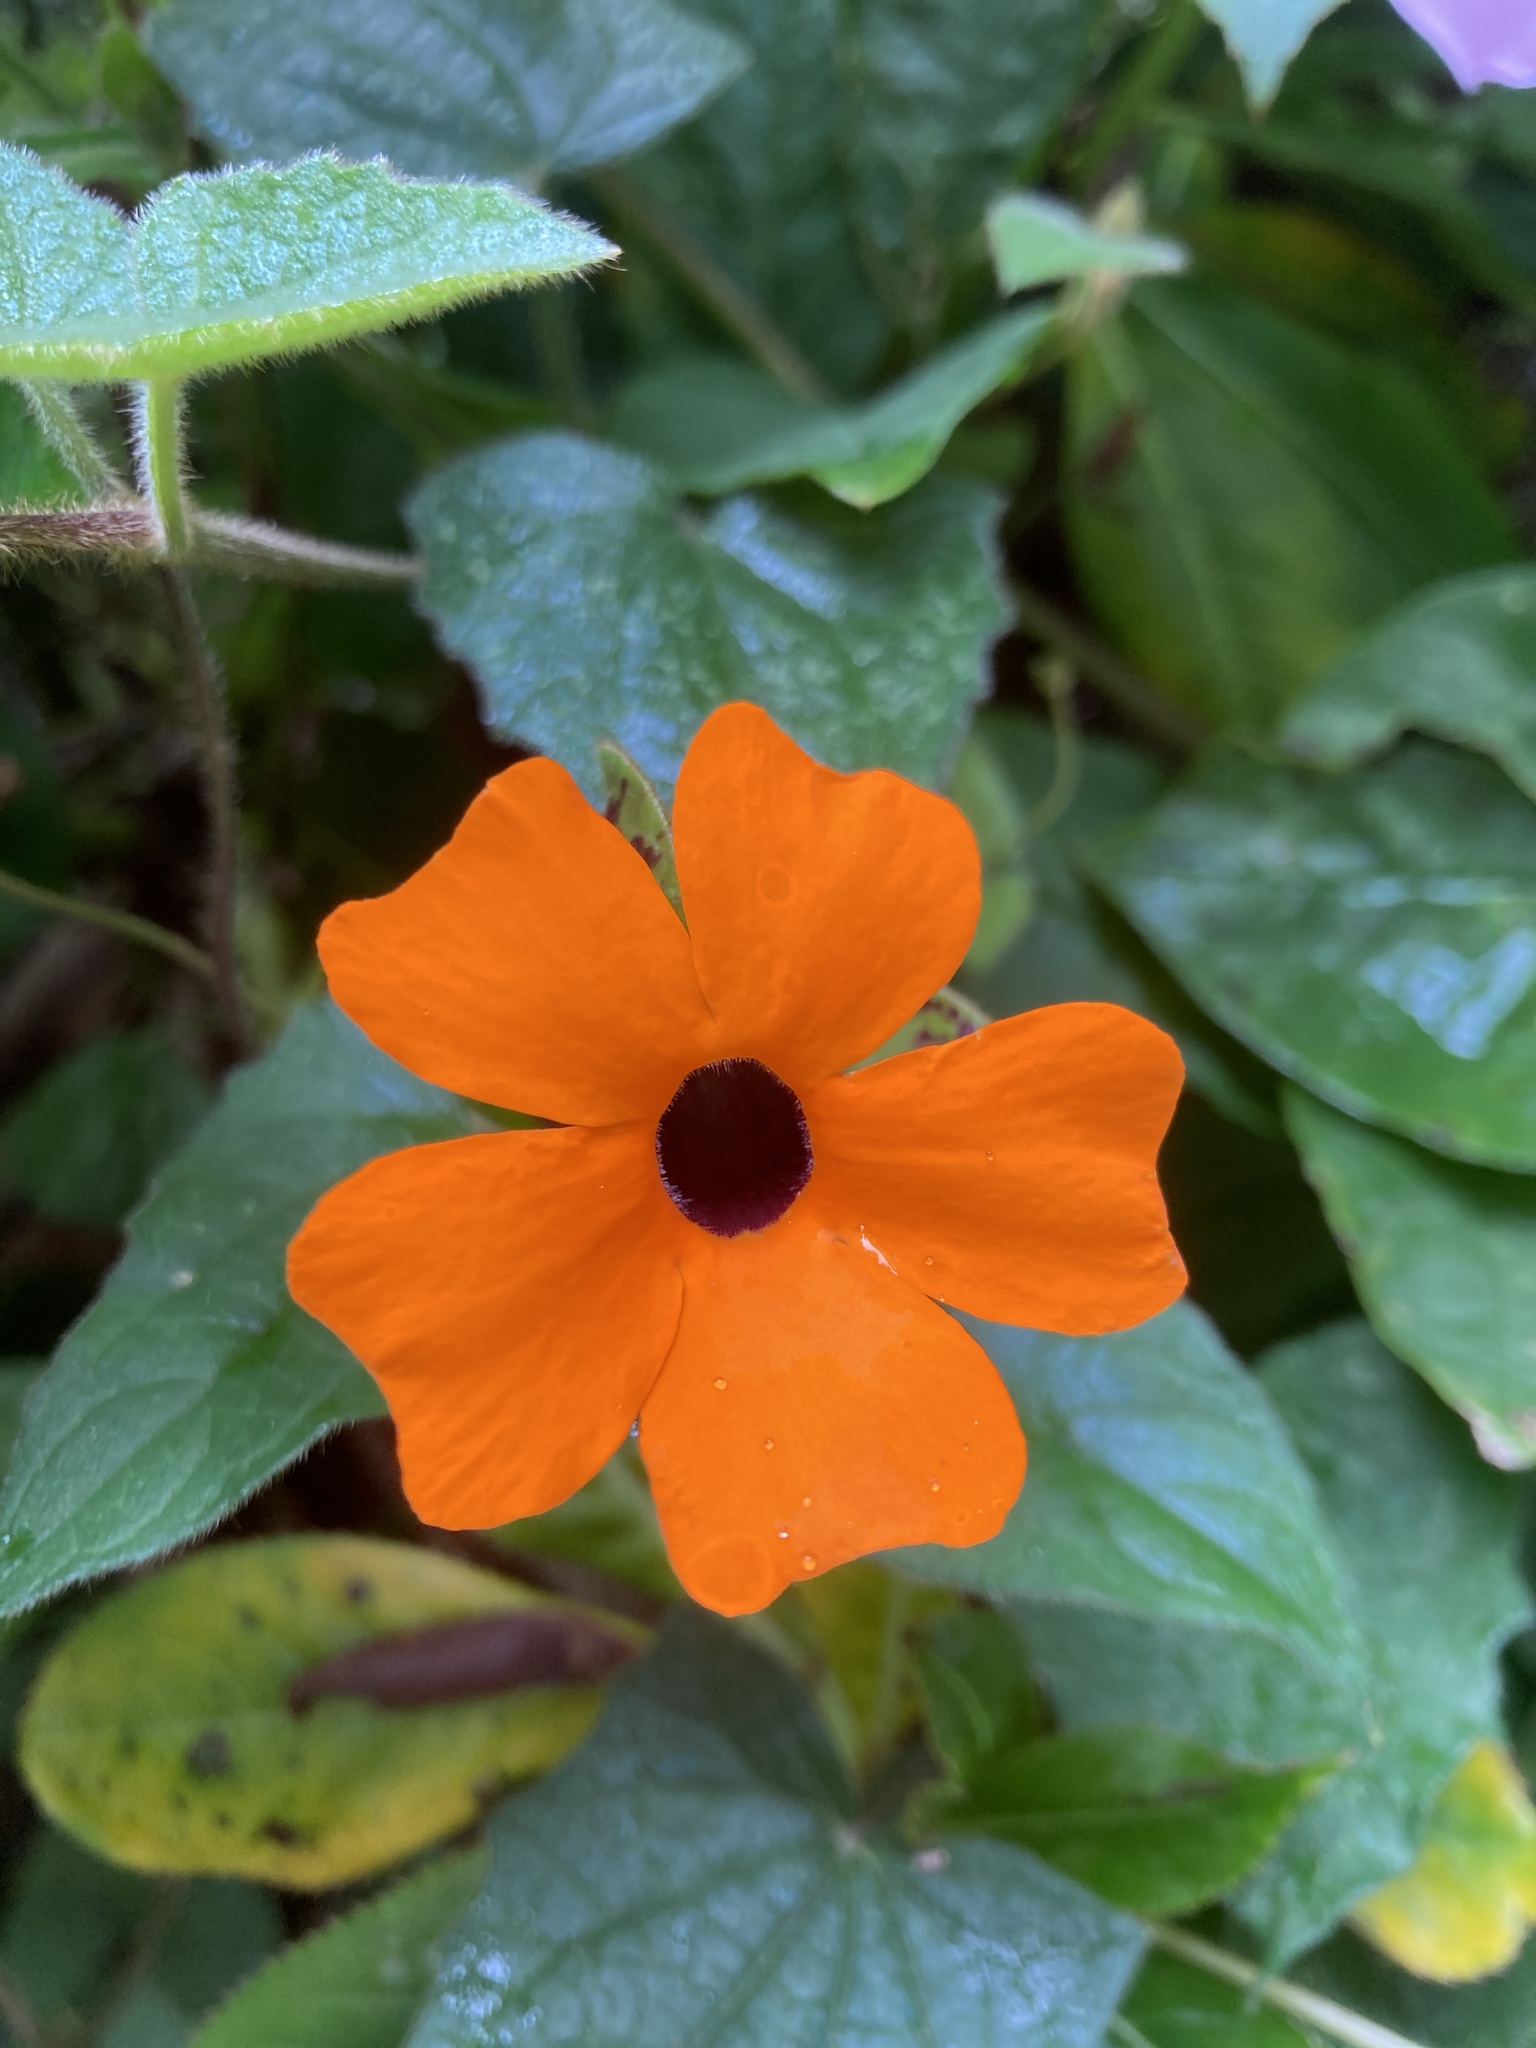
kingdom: Plantae
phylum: Tracheophyta
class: Magnoliopsida
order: Lamiales
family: Acanthaceae
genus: Thunbergia
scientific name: Thunbergia alata
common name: Blackeyed susan vine
